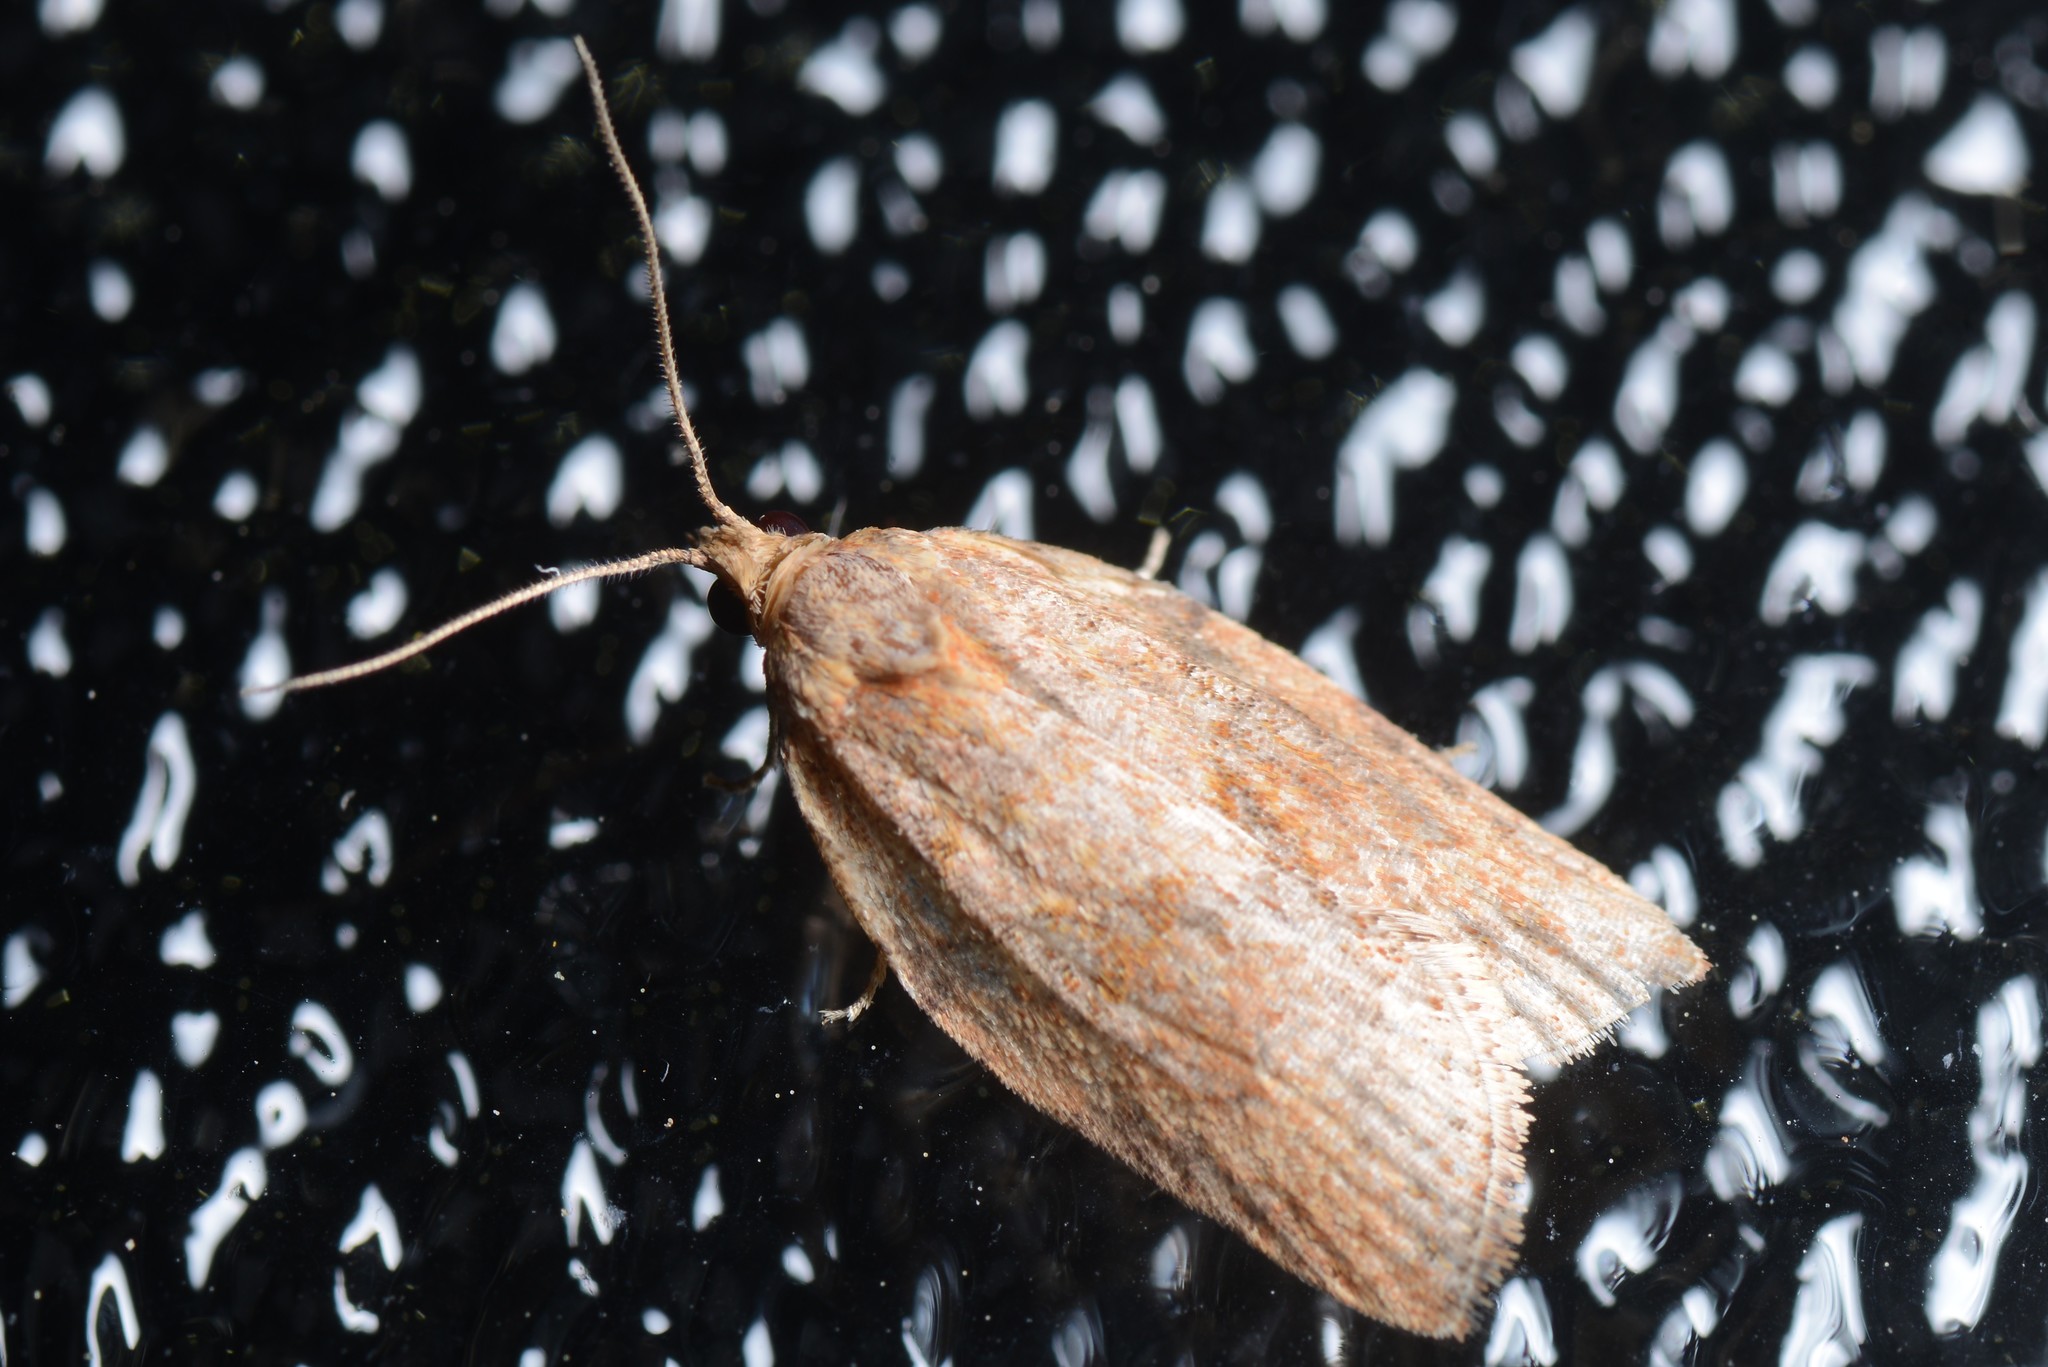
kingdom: Animalia
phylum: Arthropoda
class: Insecta
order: Lepidoptera
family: Tortricidae
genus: Epiphyas
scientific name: Epiphyas postvittana
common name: Light brown apple moth
